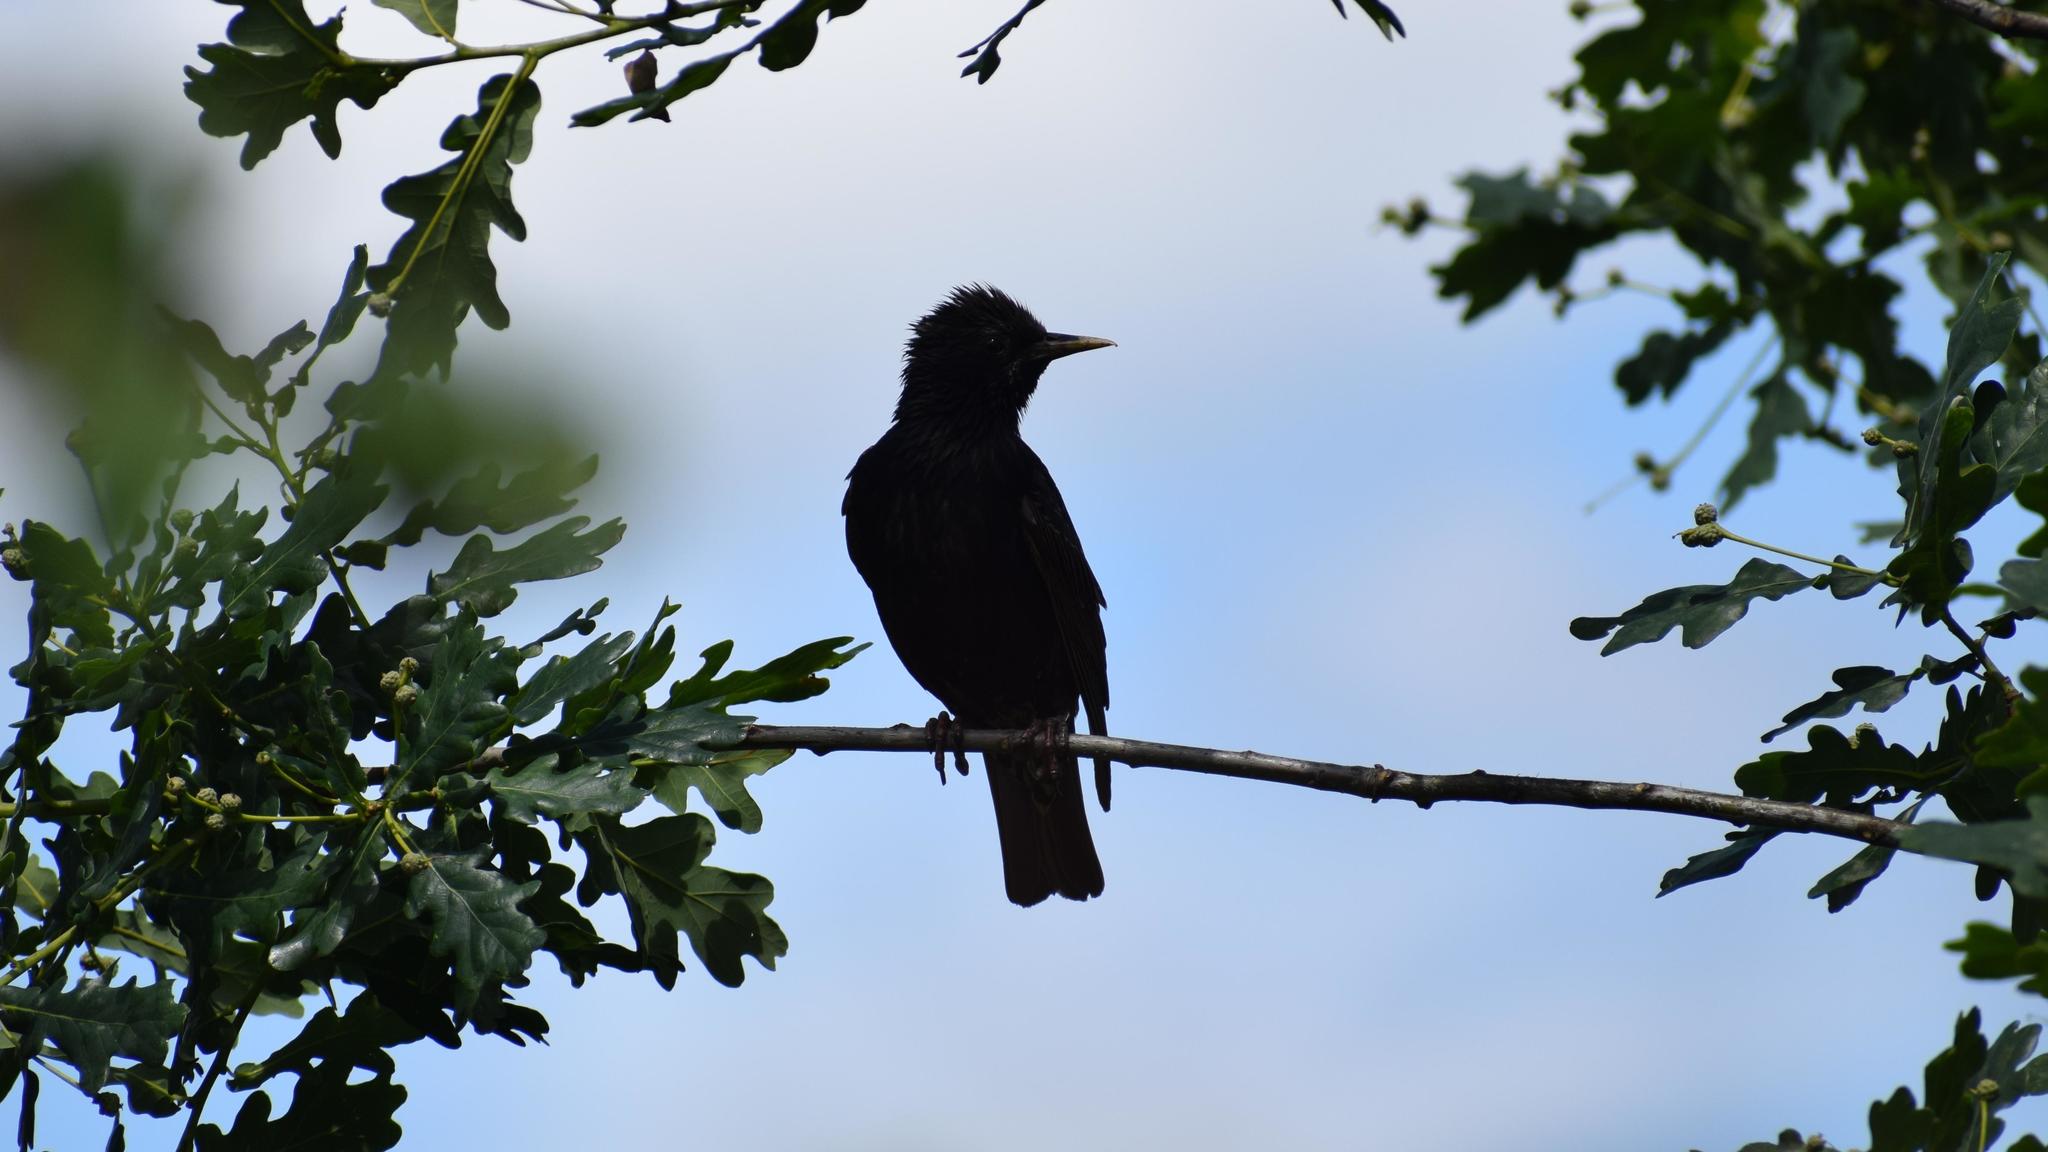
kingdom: Animalia
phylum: Chordata
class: Aves
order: Passeriformes
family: Sturnidae
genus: Sturnus
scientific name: Sturnus vulgaris
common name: Common starling
